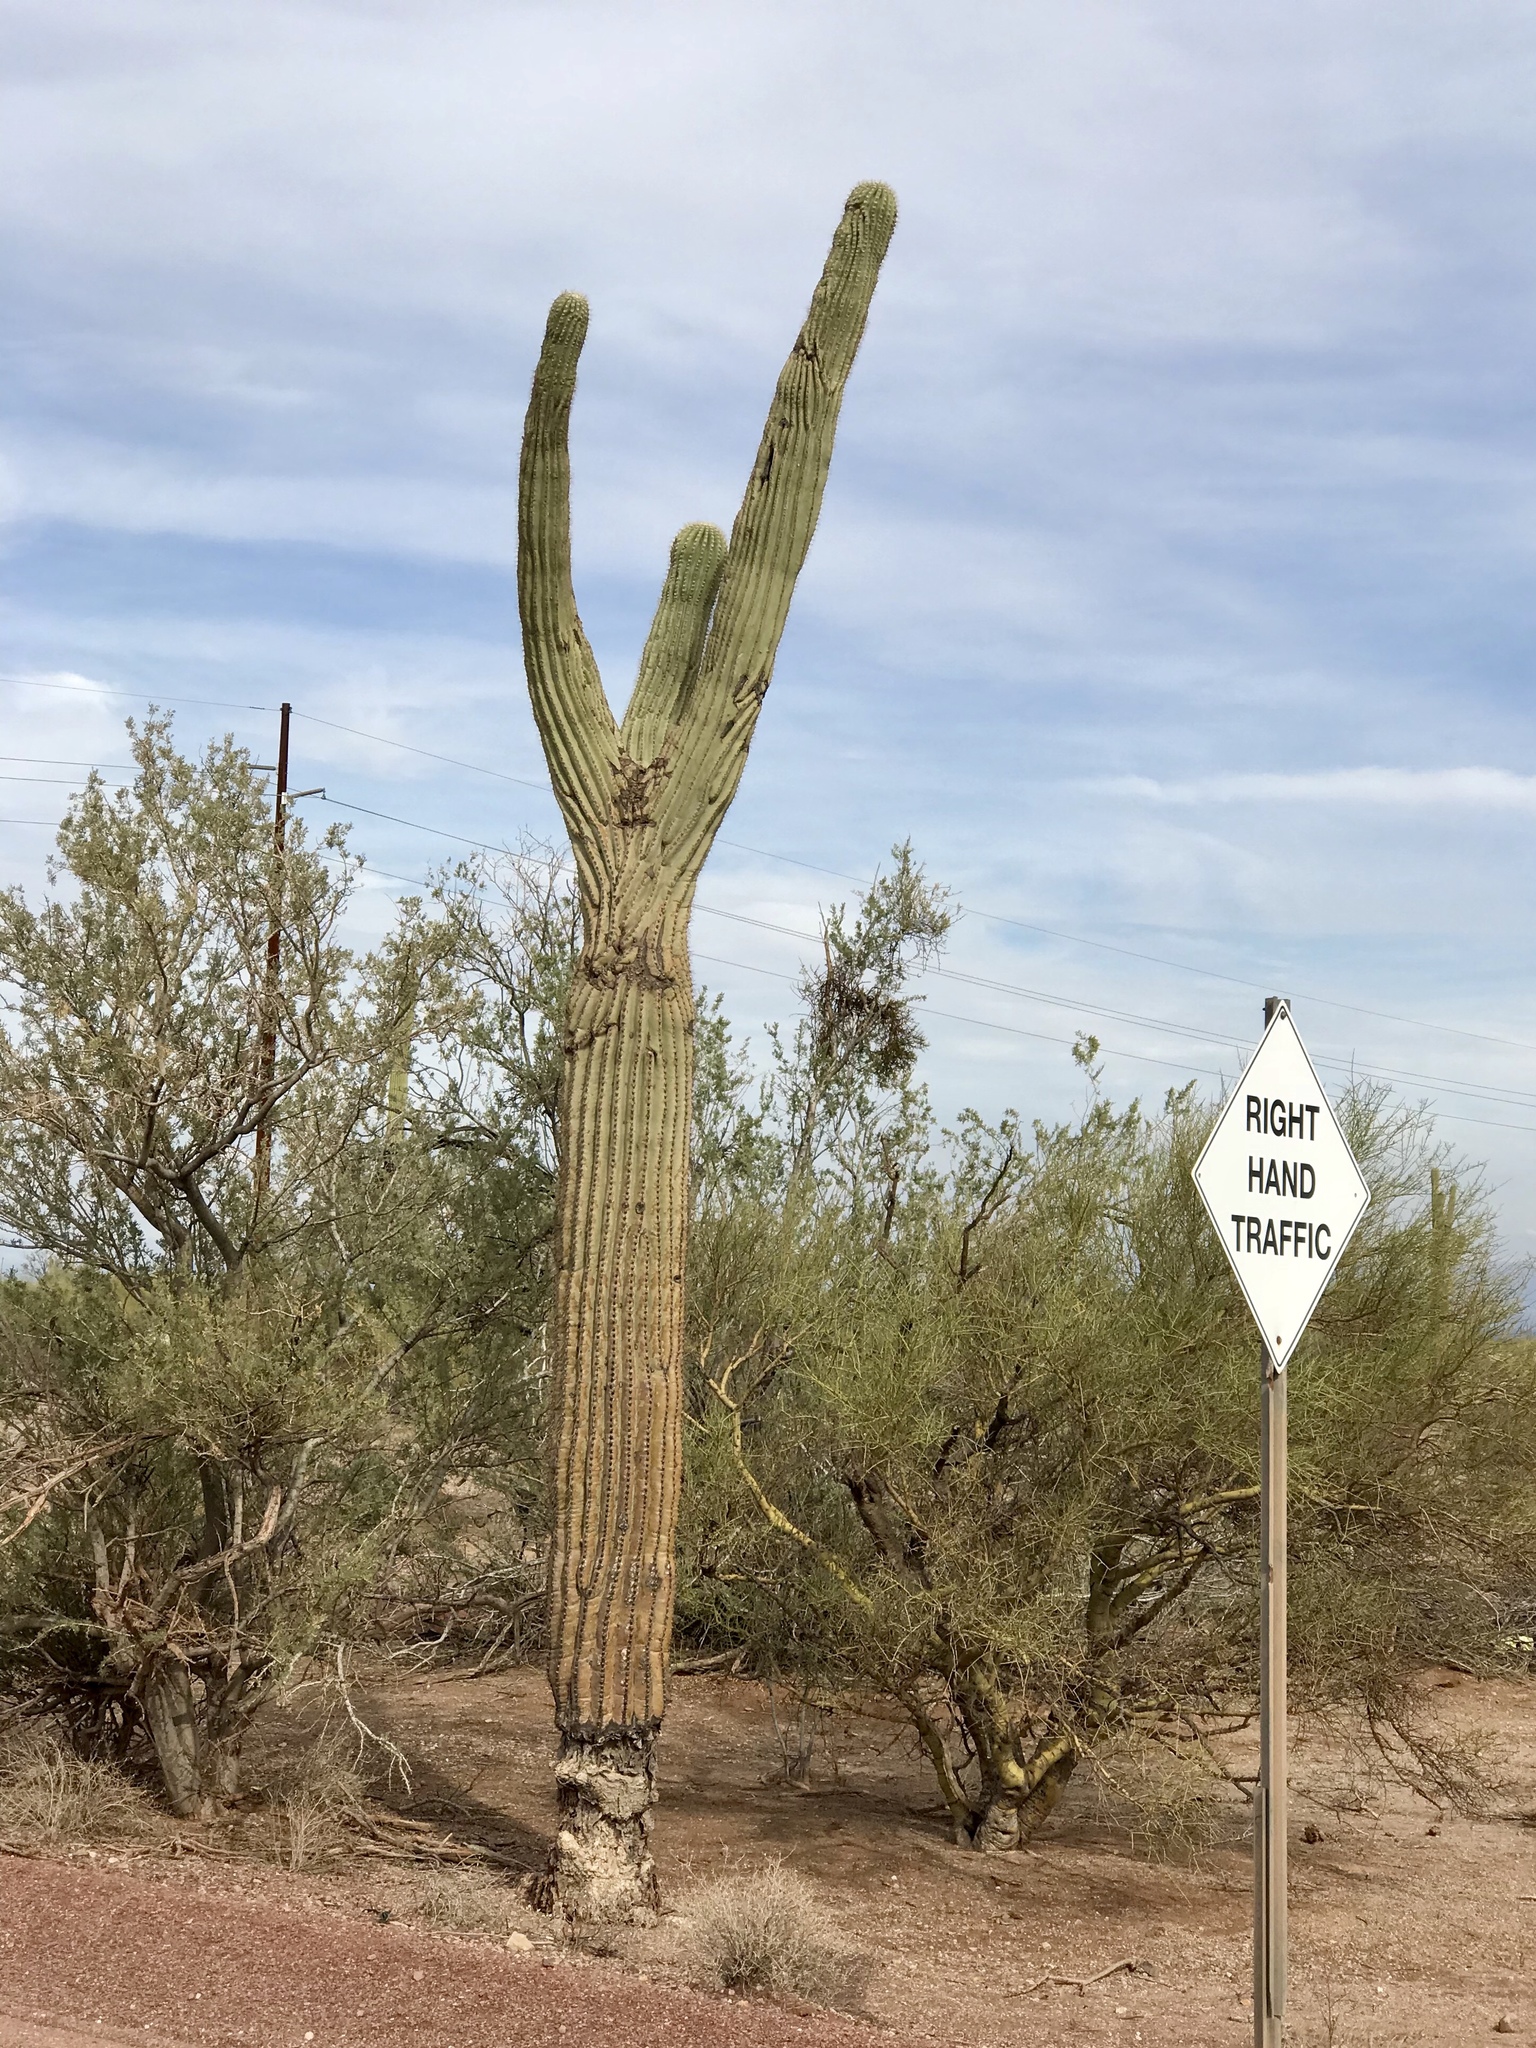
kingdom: Plantae
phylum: Tracheophyta
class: Magnoliopsida
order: Caryophyllales
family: Cactaceae
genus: Carnegiea
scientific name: Carnegiea gigantea
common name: Saguaro
